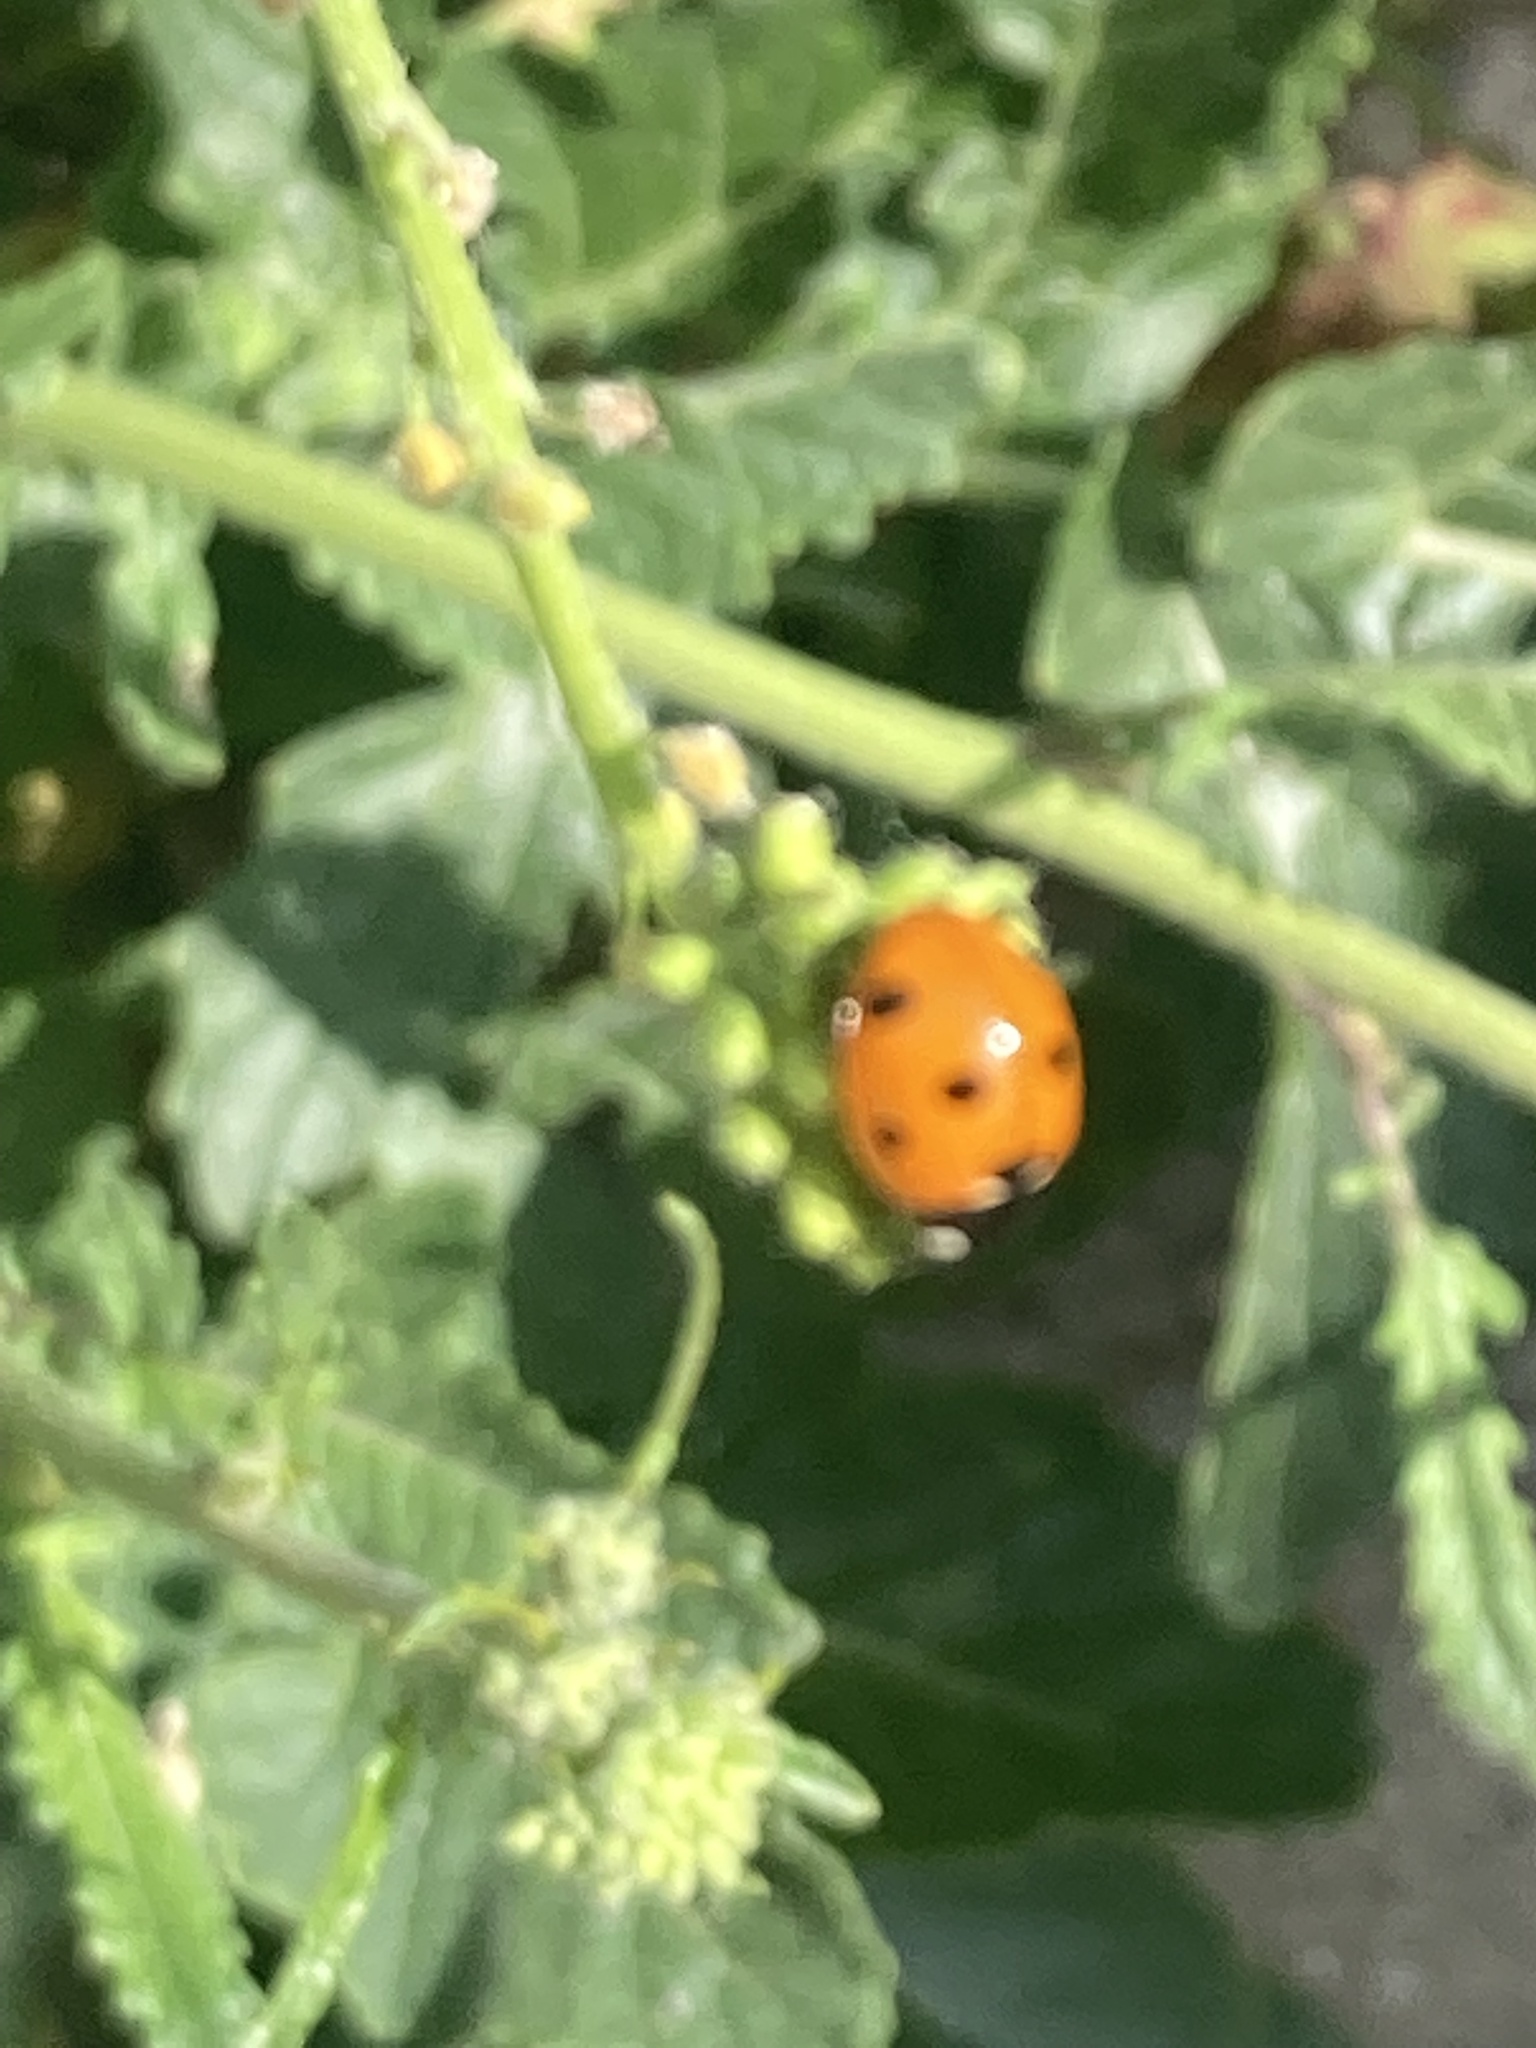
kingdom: Animalia
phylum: Arthropoda
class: Insecta
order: Coleoptera
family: Coccinellidae
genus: Coccinella
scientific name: Coccinella septempunctata
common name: Sevenspotted lady beetle
